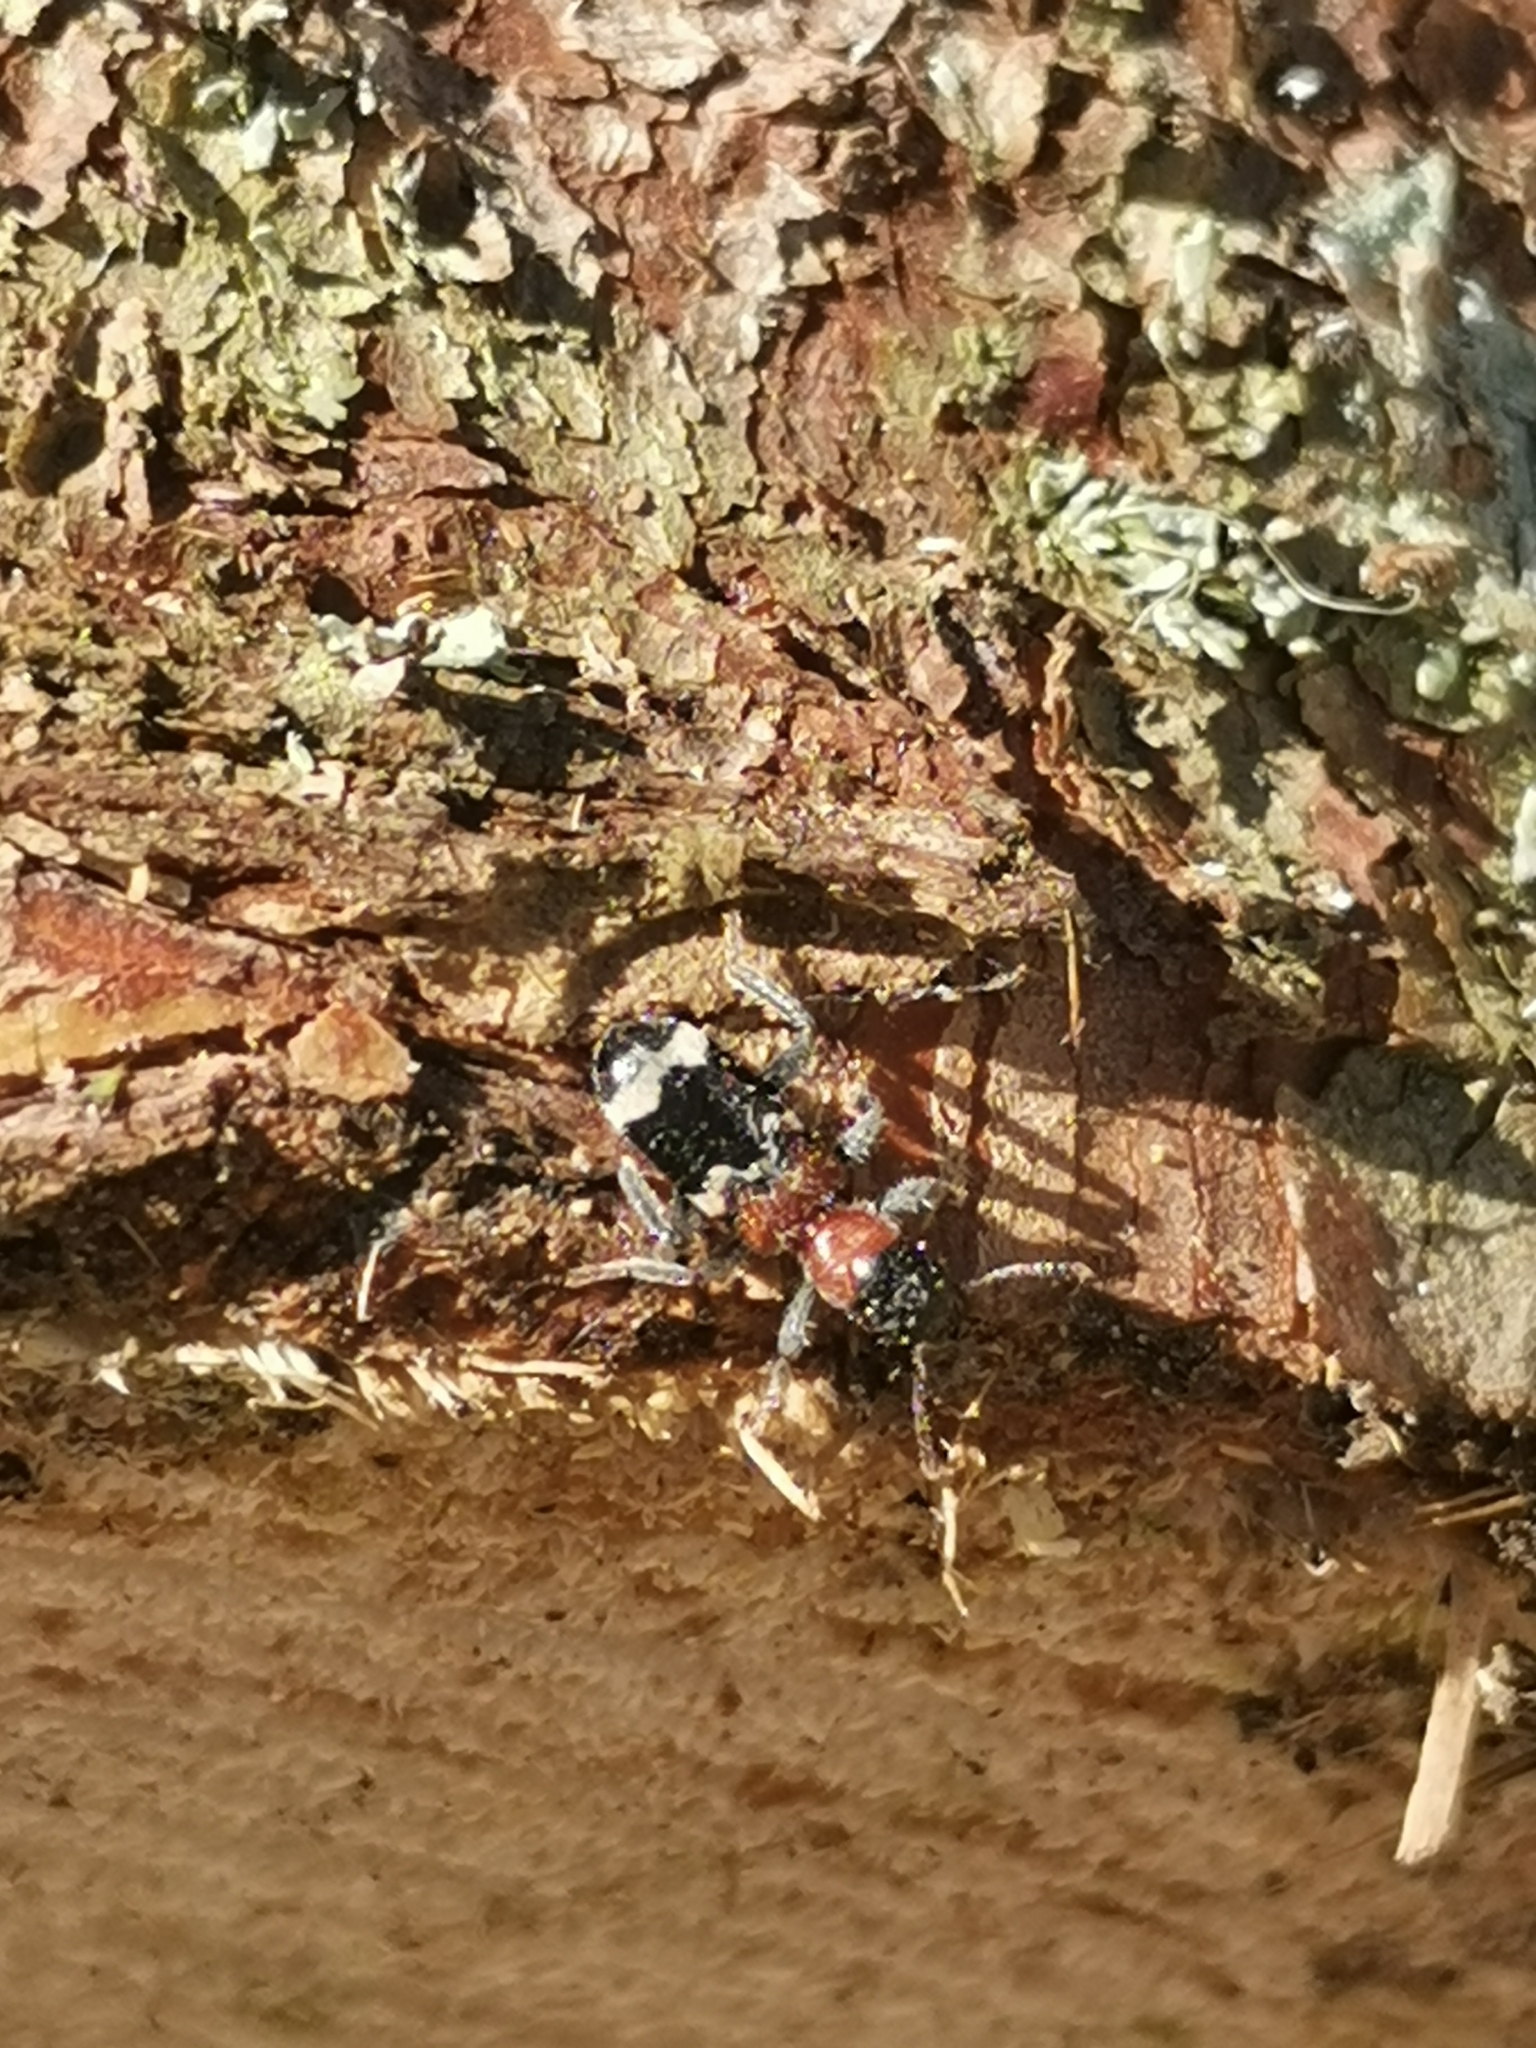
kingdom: Animalia
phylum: Arthropoda
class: Insecta
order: Coleoptera
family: Cleridae
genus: Thanasimus
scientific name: Thanasimus formicarius
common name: Ant beetle
